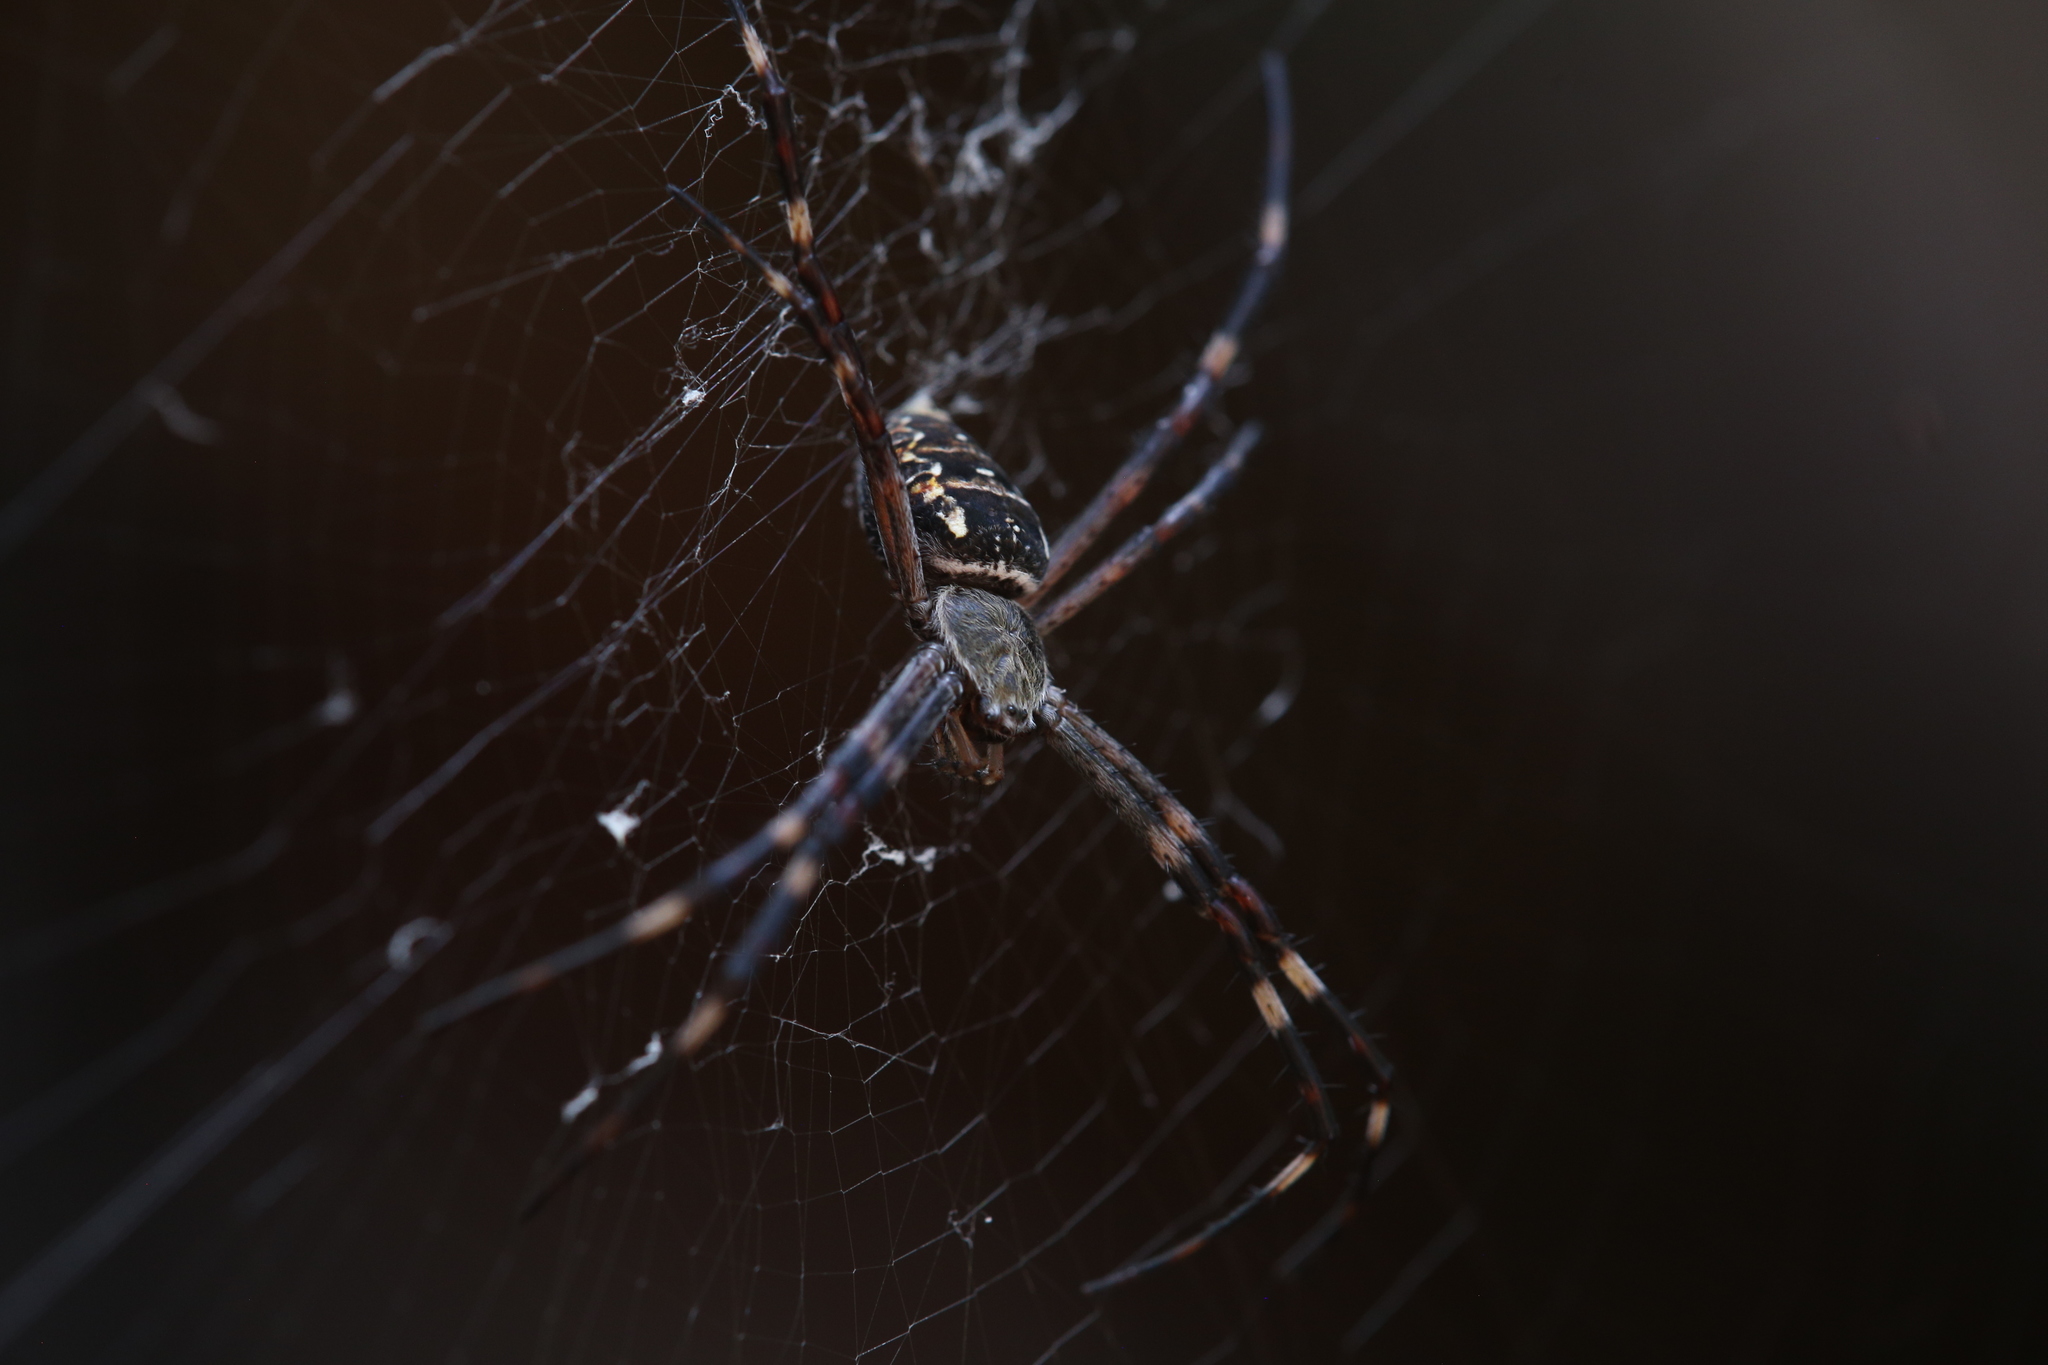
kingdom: Animalia
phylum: Arthropoda
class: Arachnida
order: Araneae
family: Araneidae
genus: Argiope
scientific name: Argiope dietrichae
